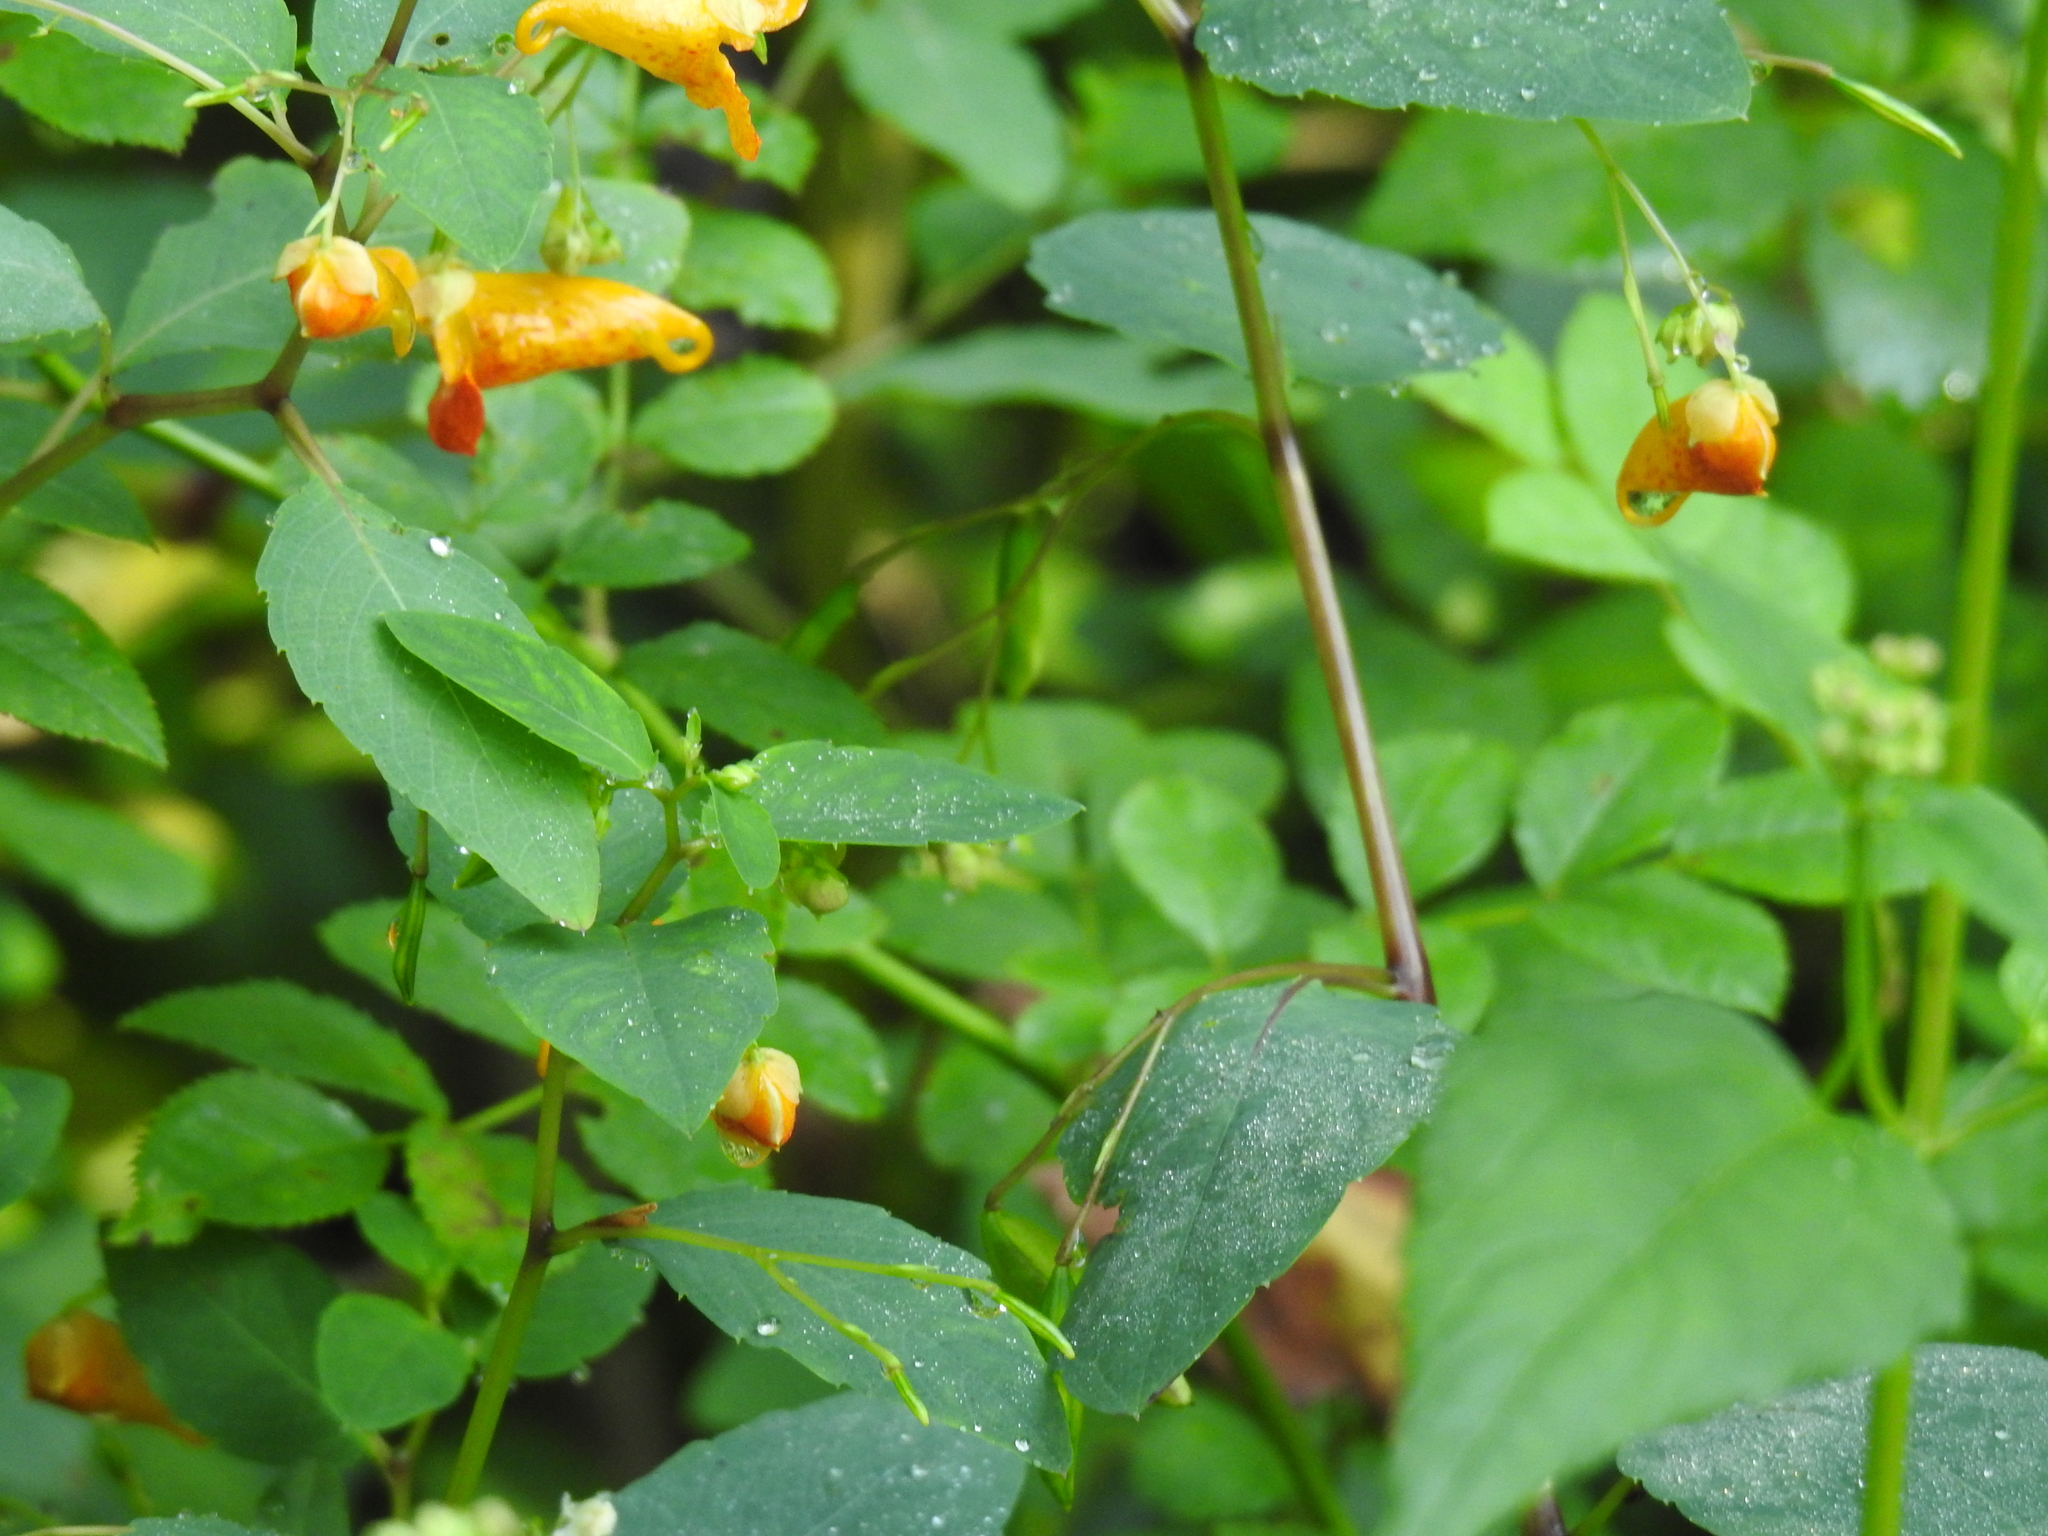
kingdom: Plantae
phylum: Tracheophyta
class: Magnoliopsida
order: Ericales
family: Balsaminaceae
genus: Impatiens
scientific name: Impatiens capensis
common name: Orange balsam
